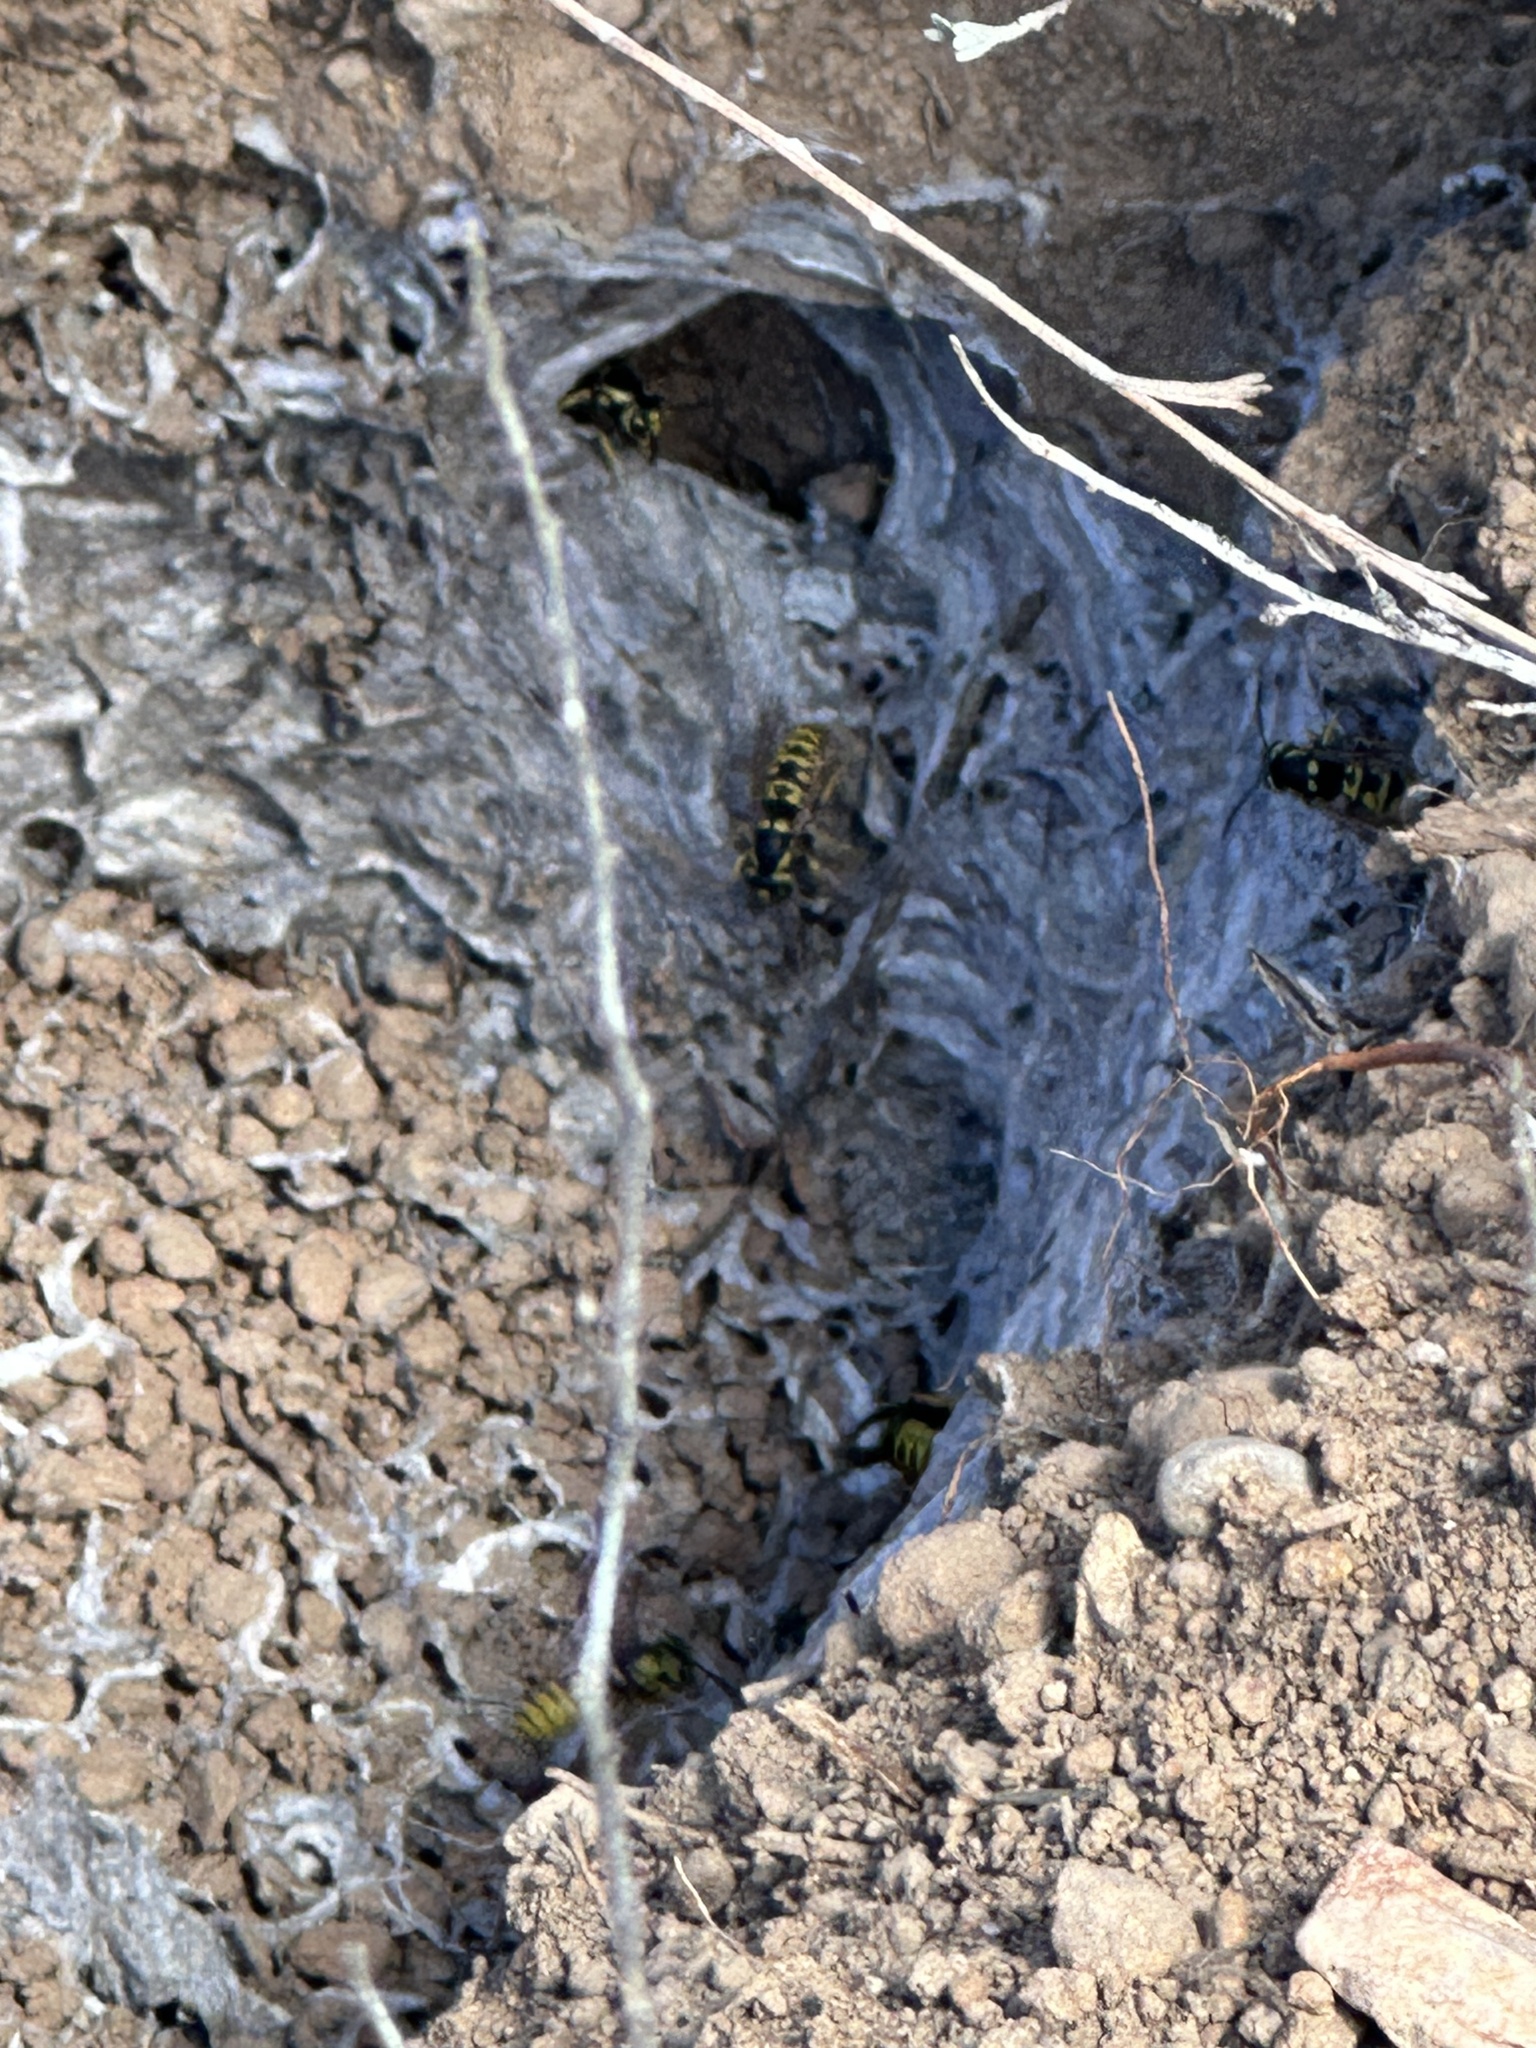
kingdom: Animalia
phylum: Arthropoda
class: Insecta
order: Hymenoptera
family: Vespidae
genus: Vespula
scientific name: Vespula atropilosa
